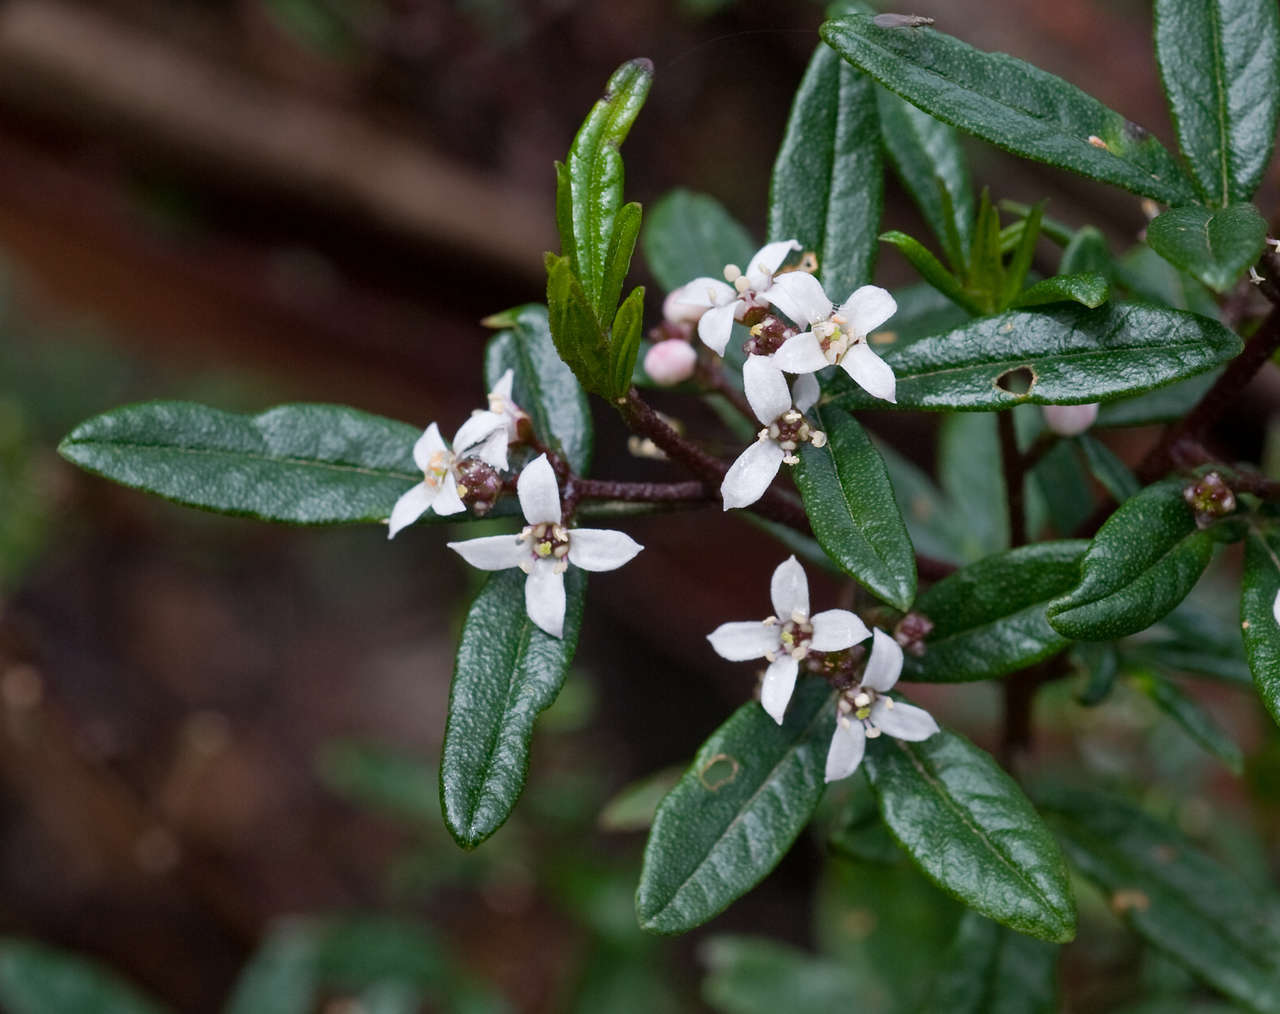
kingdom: Plantae
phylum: Tracheophyta
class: Magnoliopsida
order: Sapindales
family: Rutaceae
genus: Zieria
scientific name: Zieria smithii
